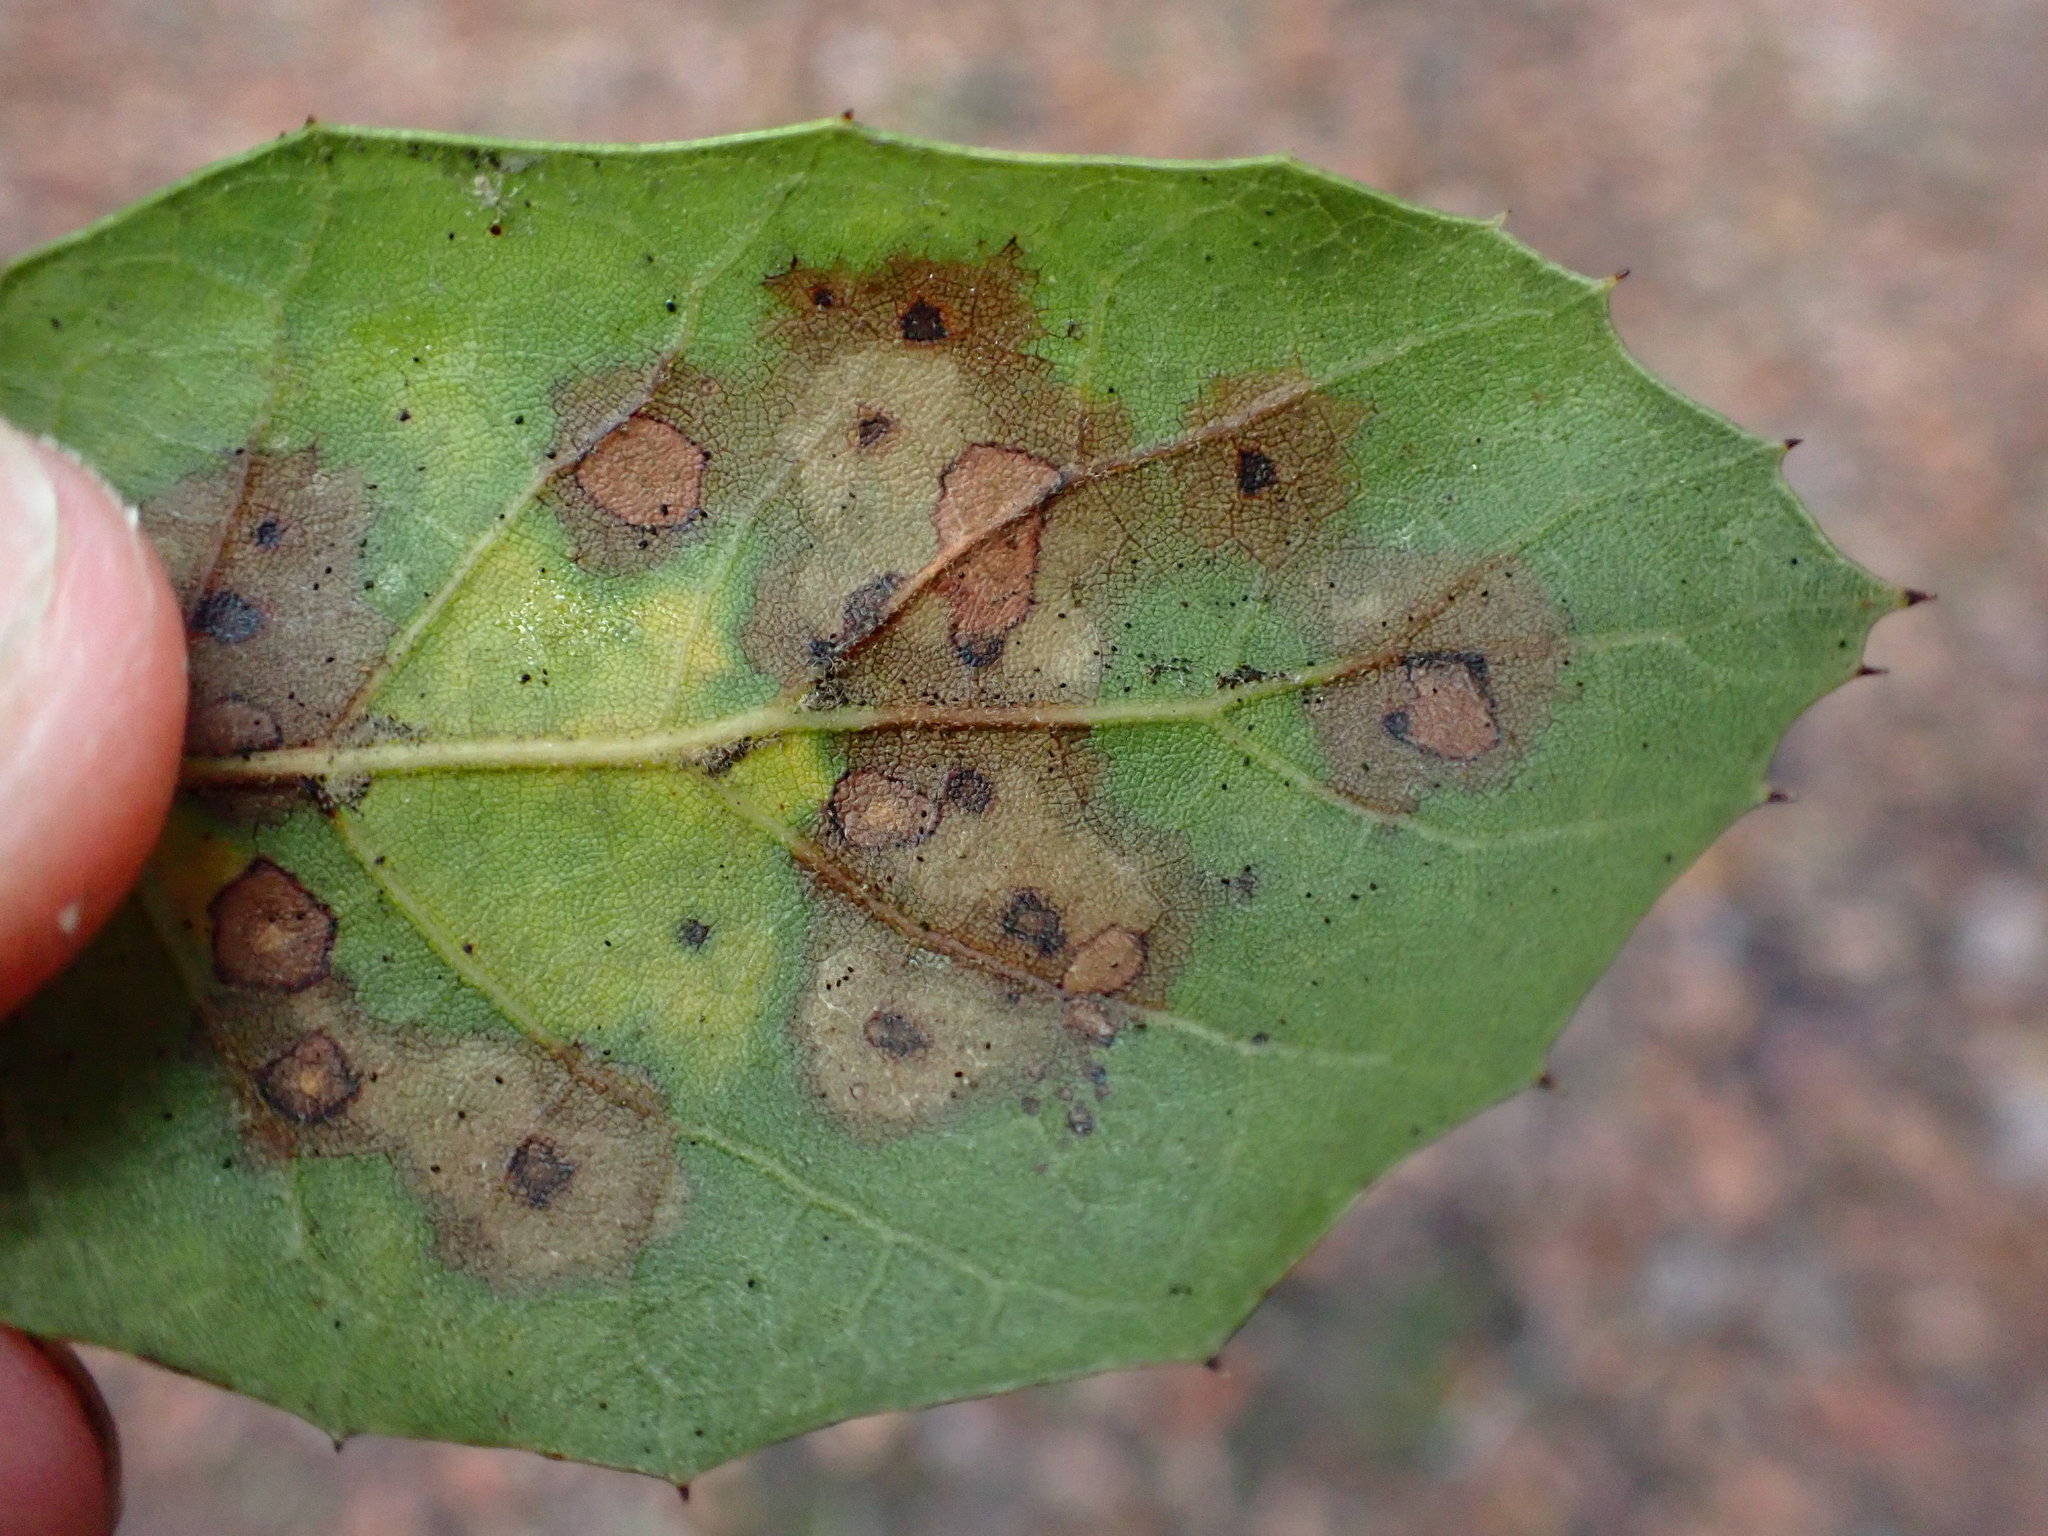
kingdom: Fungi
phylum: Ascomycota
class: Sordariomycetes
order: Diaporthales
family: Tubakiaceae
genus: Tubakia
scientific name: Tubakia californica
